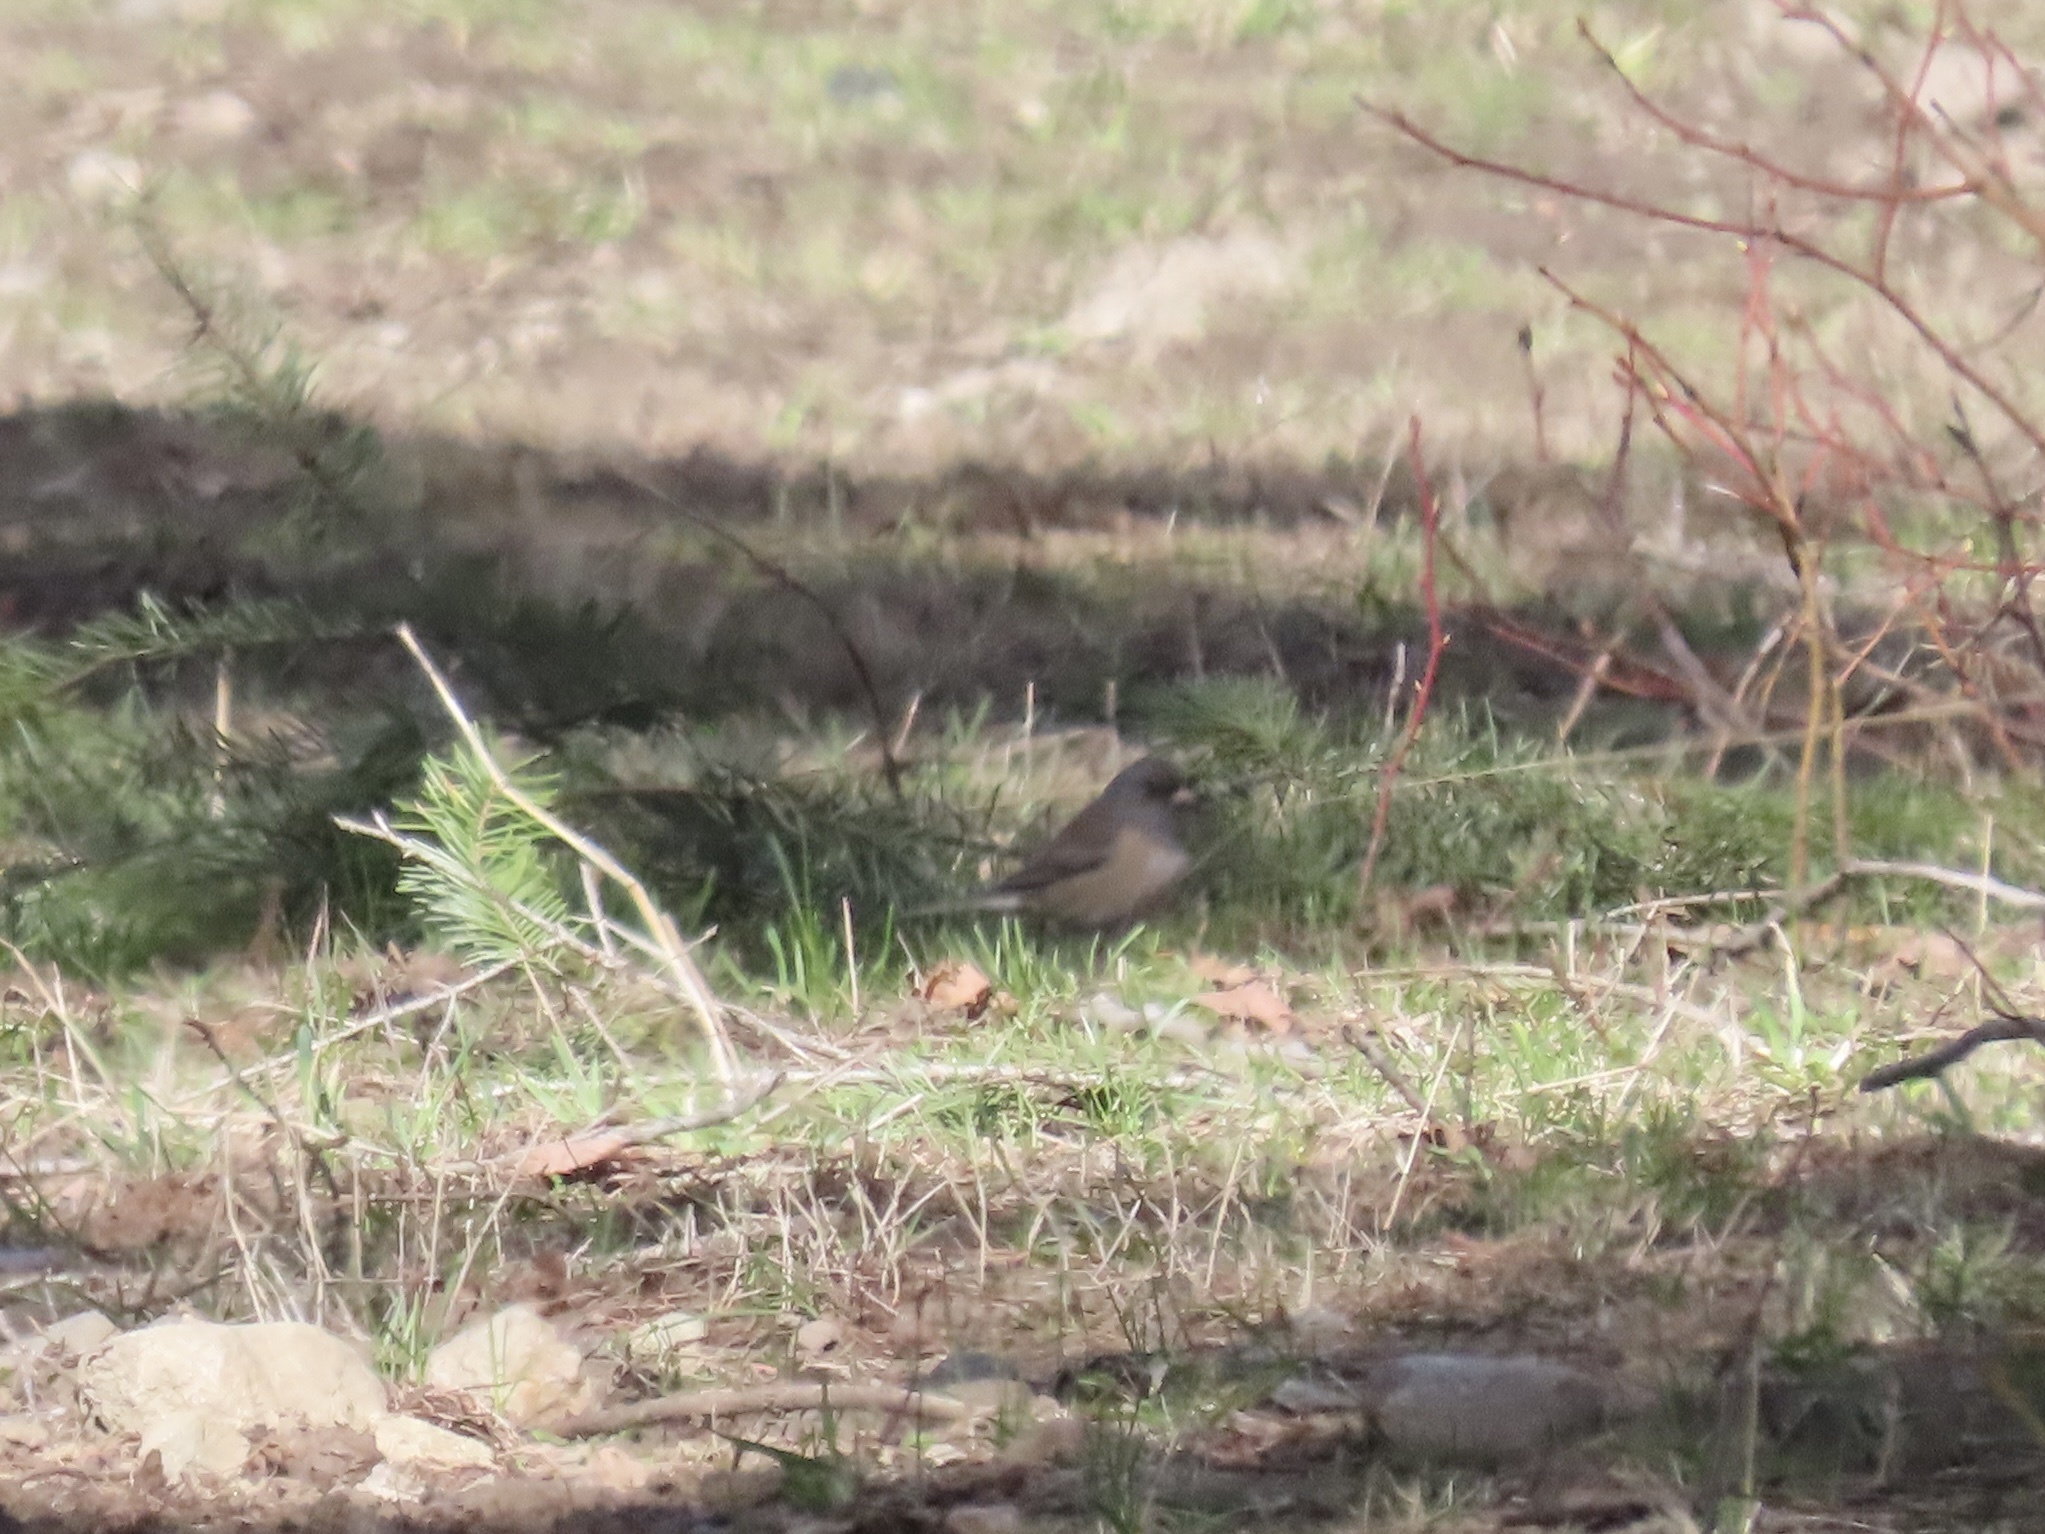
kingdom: Animalia
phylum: Chordata
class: Aves
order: Passeriformes
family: Passerellidae
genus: Junco
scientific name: Junco hyemalis
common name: Dark-eyed junco
